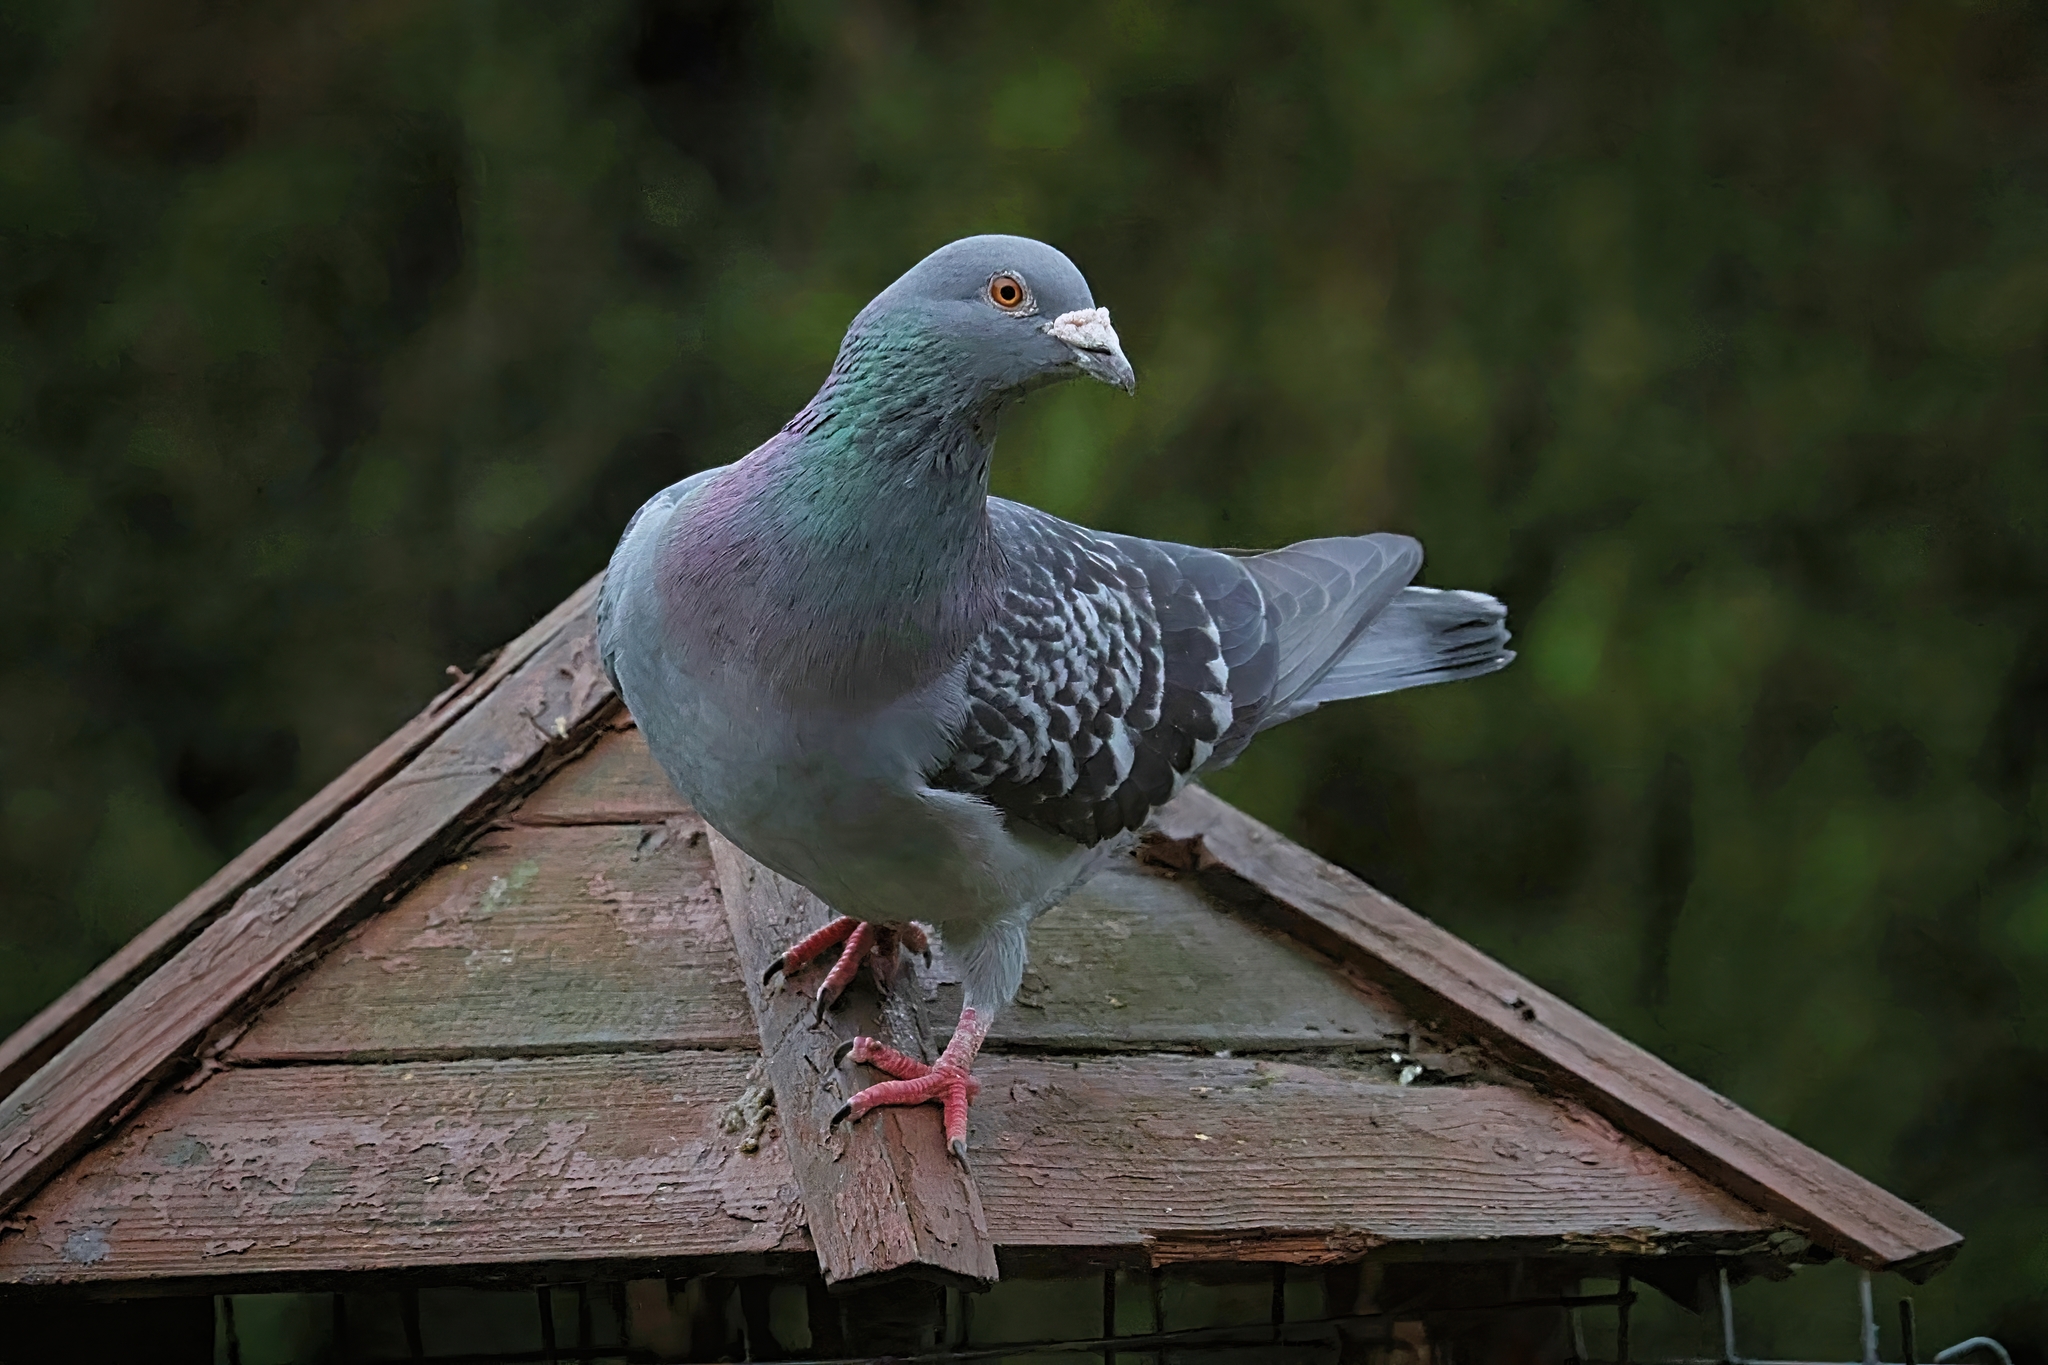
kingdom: Animalia
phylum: Chordata
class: Aves
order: Columbiformes
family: Columbidae
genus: Columba
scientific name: Columba livia
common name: Rock pigeon
